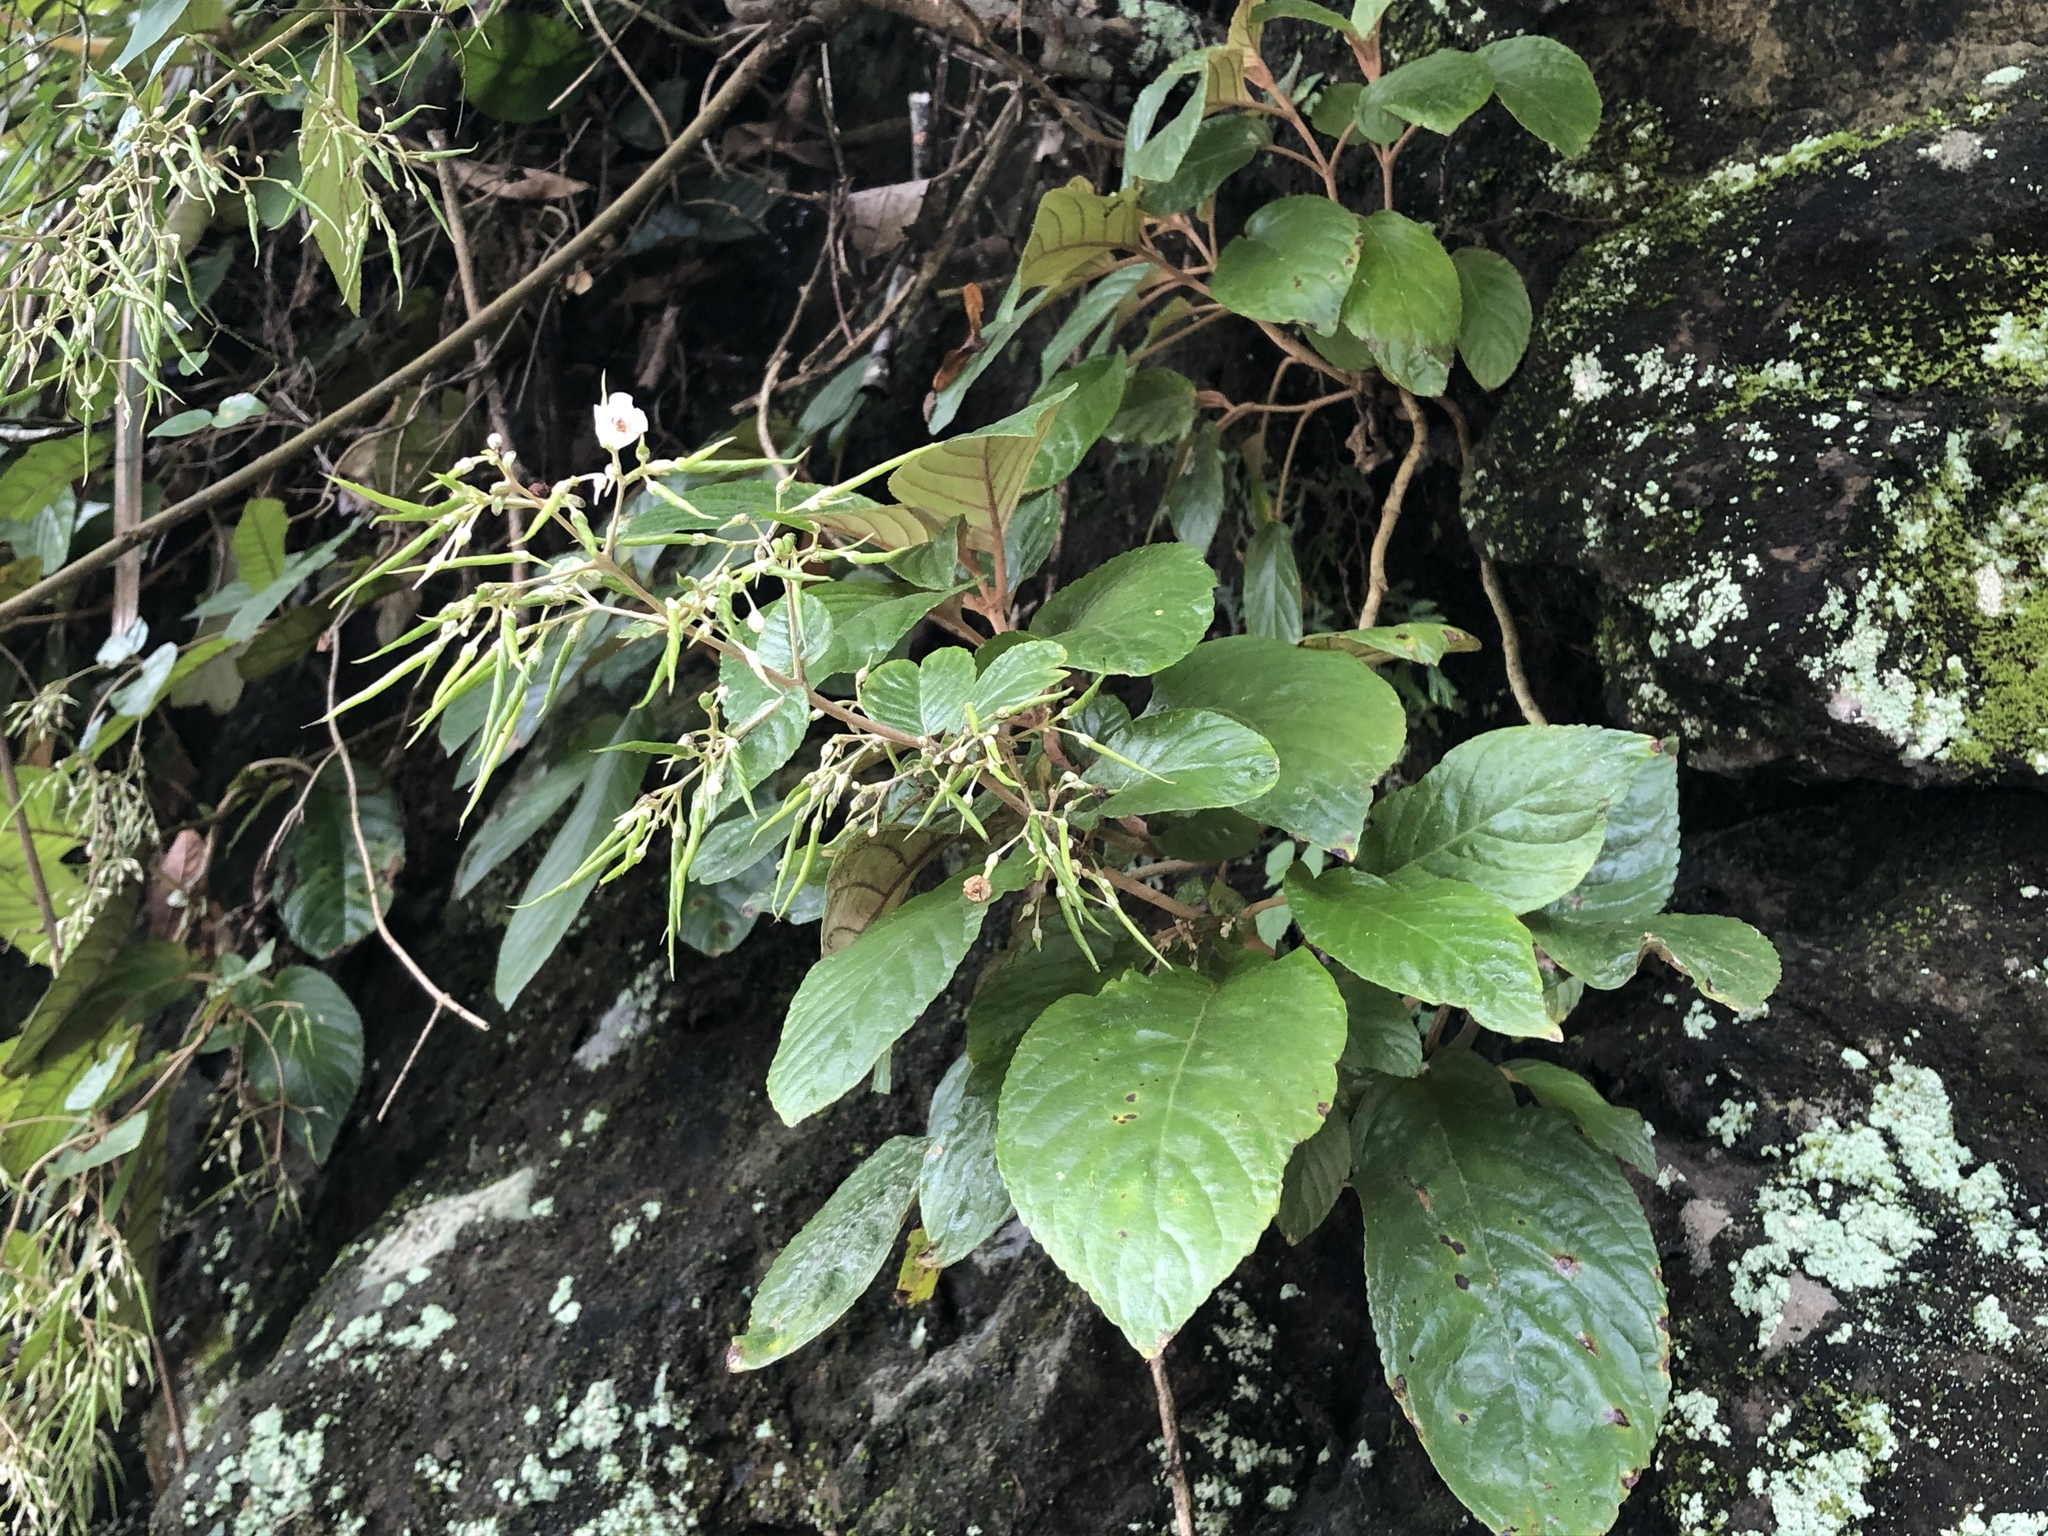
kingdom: Plantae
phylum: Tracheophyta
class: Magnoliopsida
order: Lamiales
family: Gesneriaceae
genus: Paraboea
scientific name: Paraboea swinhoei
